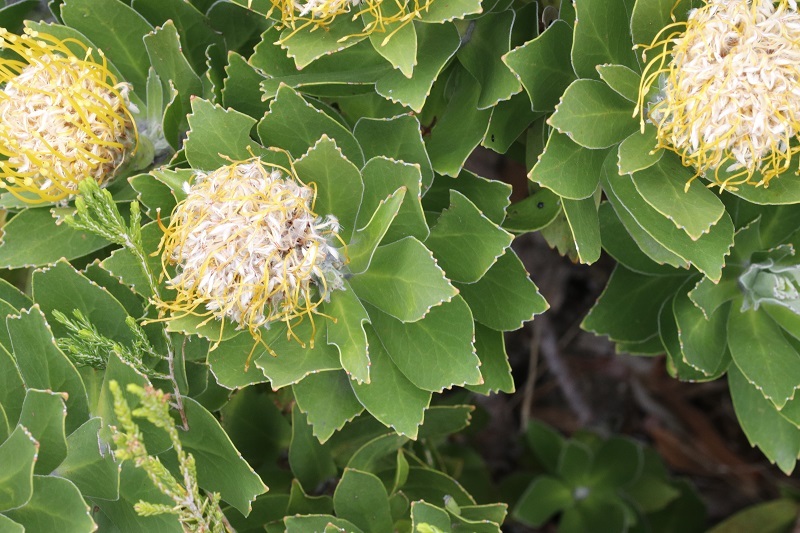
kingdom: Plantae
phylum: Tracheophyta
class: Magnoliopsida
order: Proteales
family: Proteaceae
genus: Leucospermum
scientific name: Leucospermum conocarpodendron
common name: Tree pincushion
